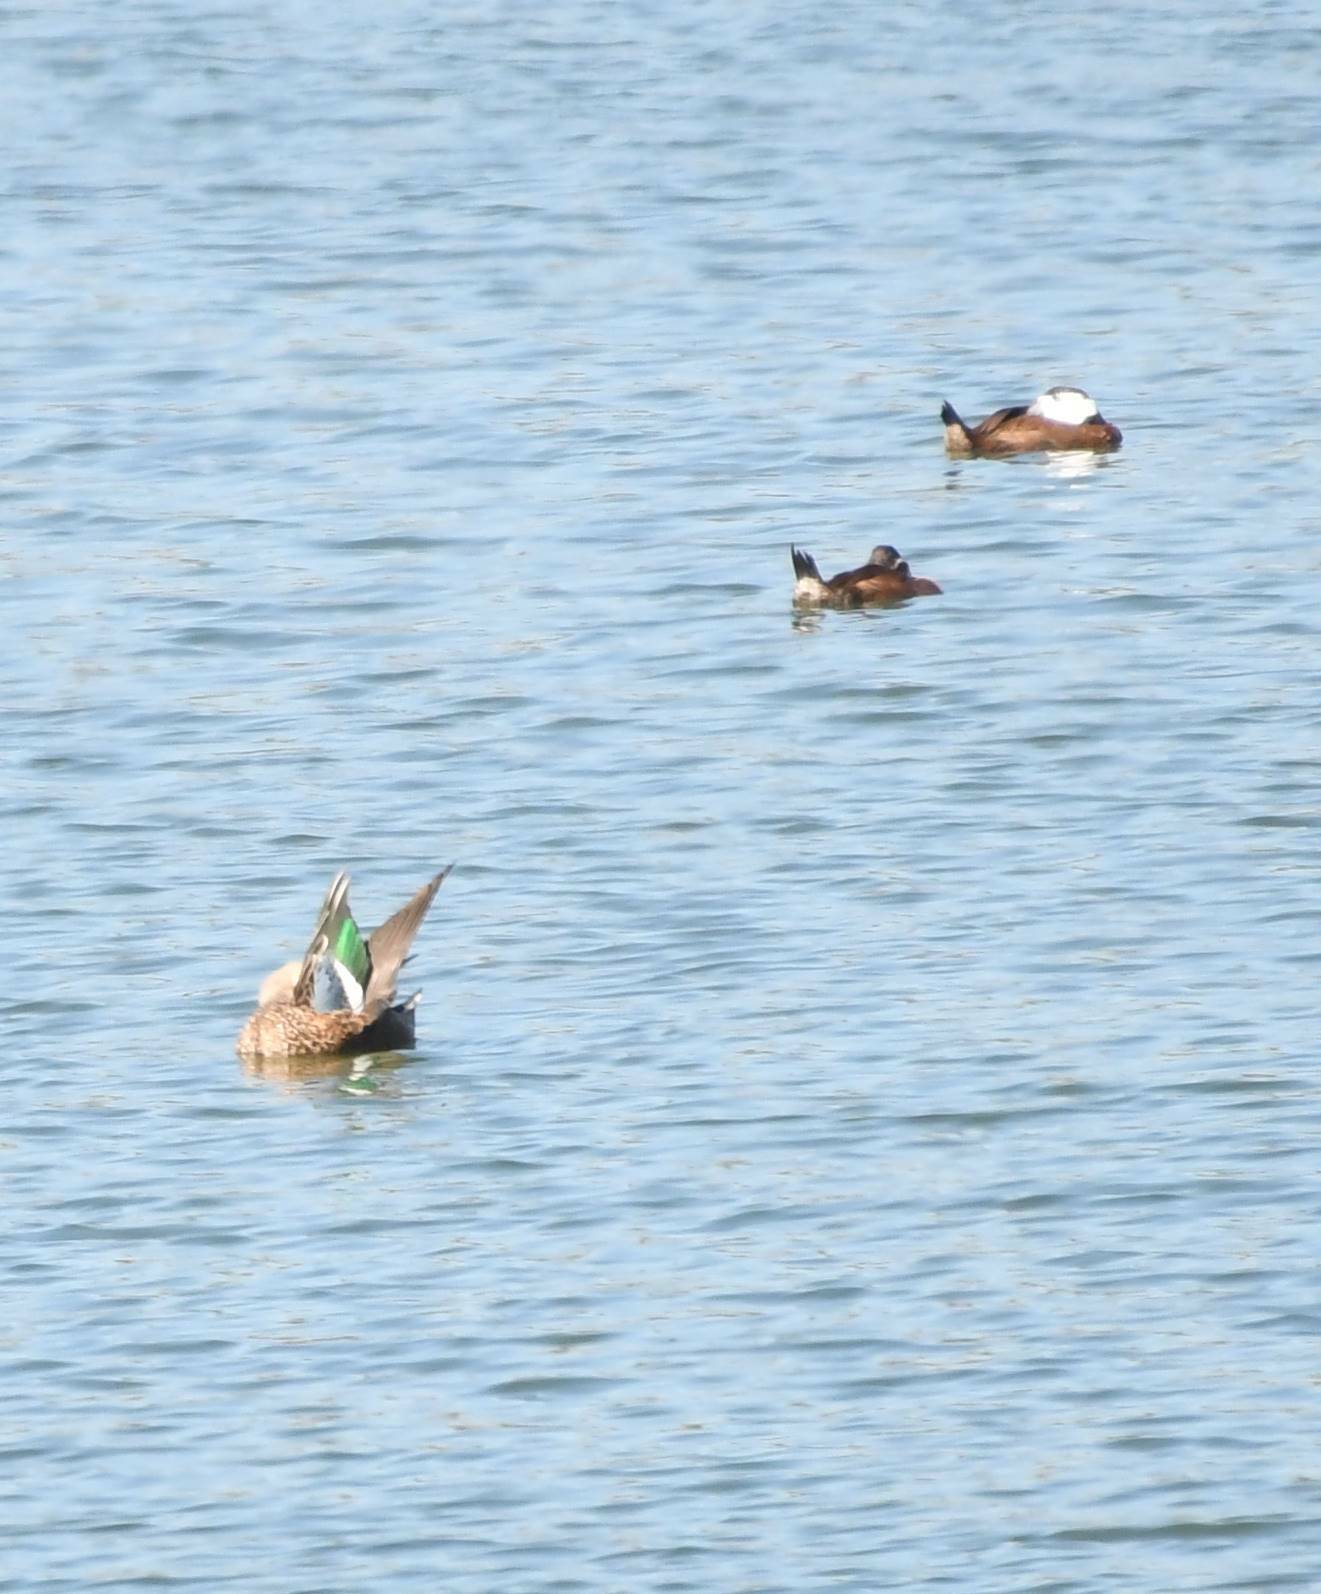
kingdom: Animalia
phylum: Chordata
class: Aves
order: Anseriformes
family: Anatidae
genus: Oxyura
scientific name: Oxyura leucocephala
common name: White-headed duck
